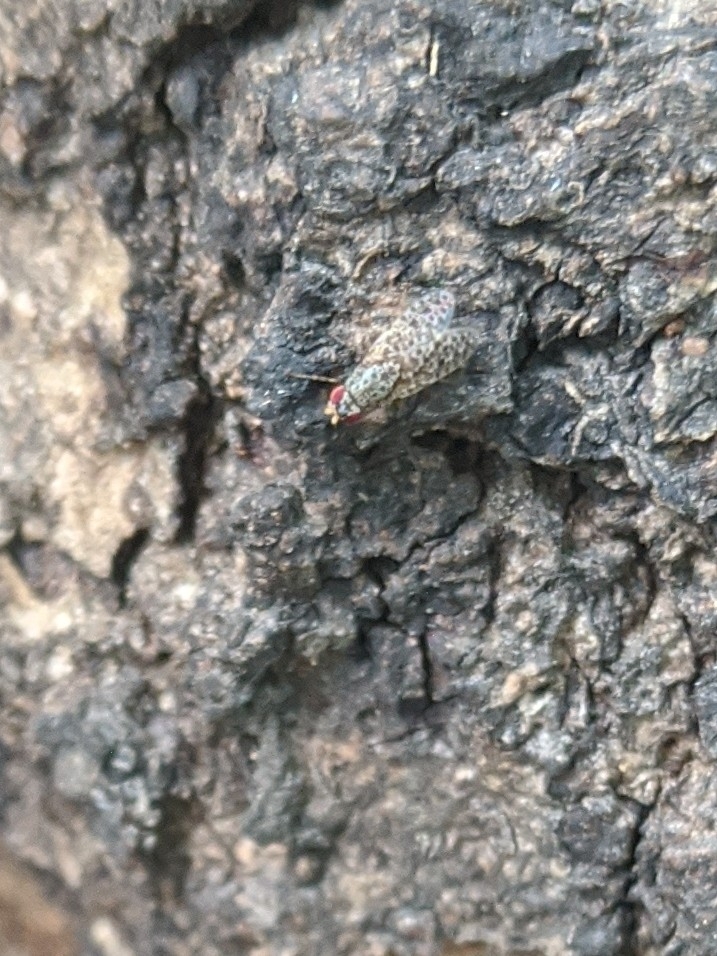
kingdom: Animalia
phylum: Arthropoda
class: Insecta
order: Diptera
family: Odiniidae
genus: Traginops
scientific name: Traginops irroratus
